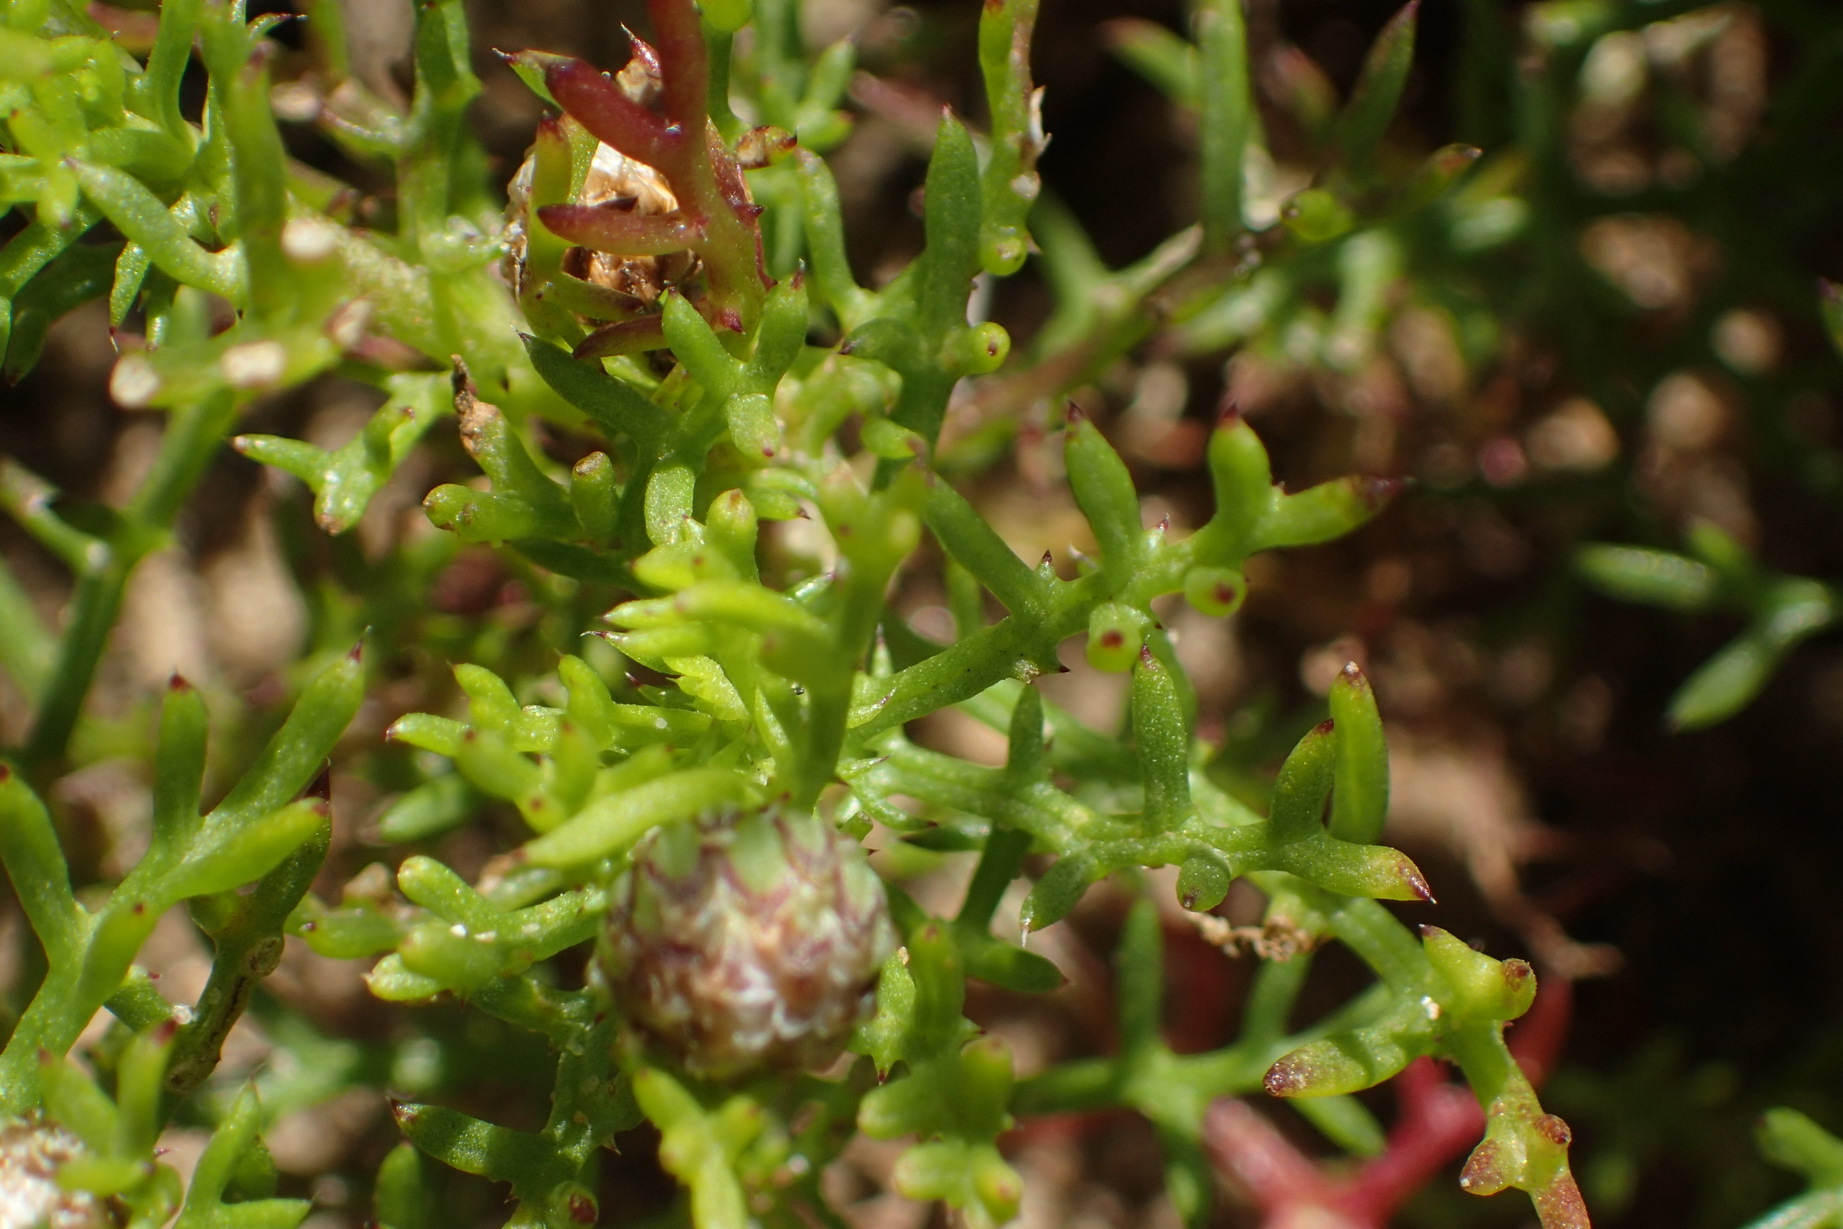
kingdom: Plantae
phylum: Tracheophyta
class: Magnoliopsida
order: Asterales
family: Asteraceae
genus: Ursinia
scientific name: Ursinia chrysanthemoides
